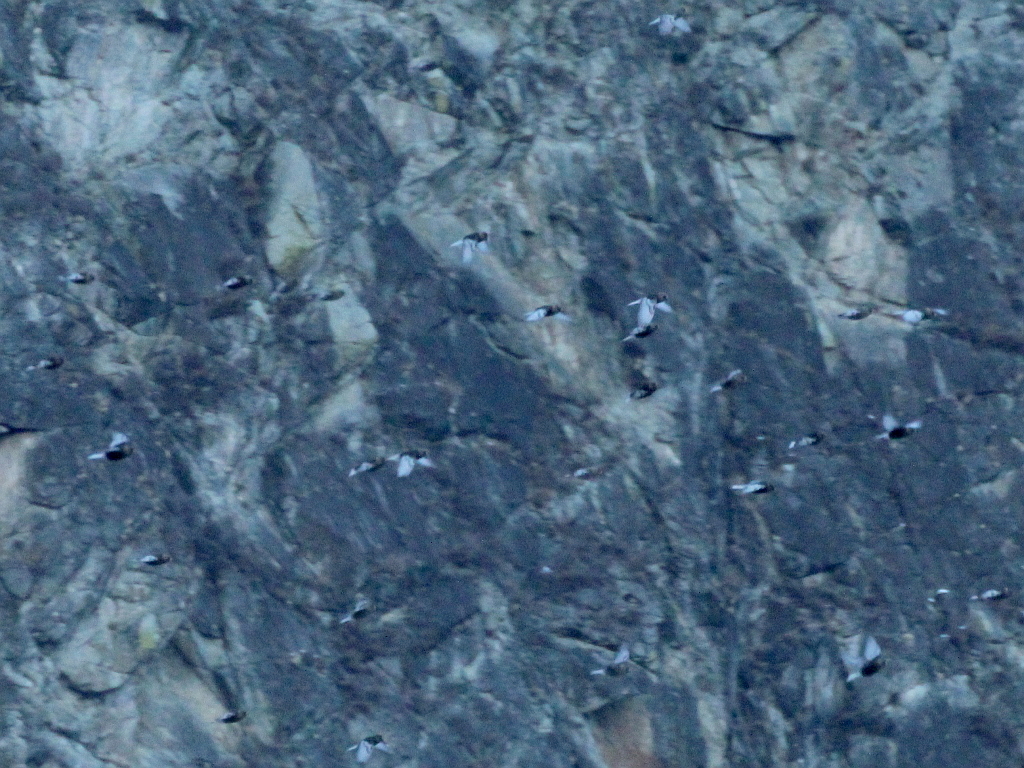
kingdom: Animalia
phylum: Chordata
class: Aves
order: Passeriformes
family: Fringillidae
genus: Leucosticte
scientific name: Leucosticte arctoa
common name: Asian rosy finch
